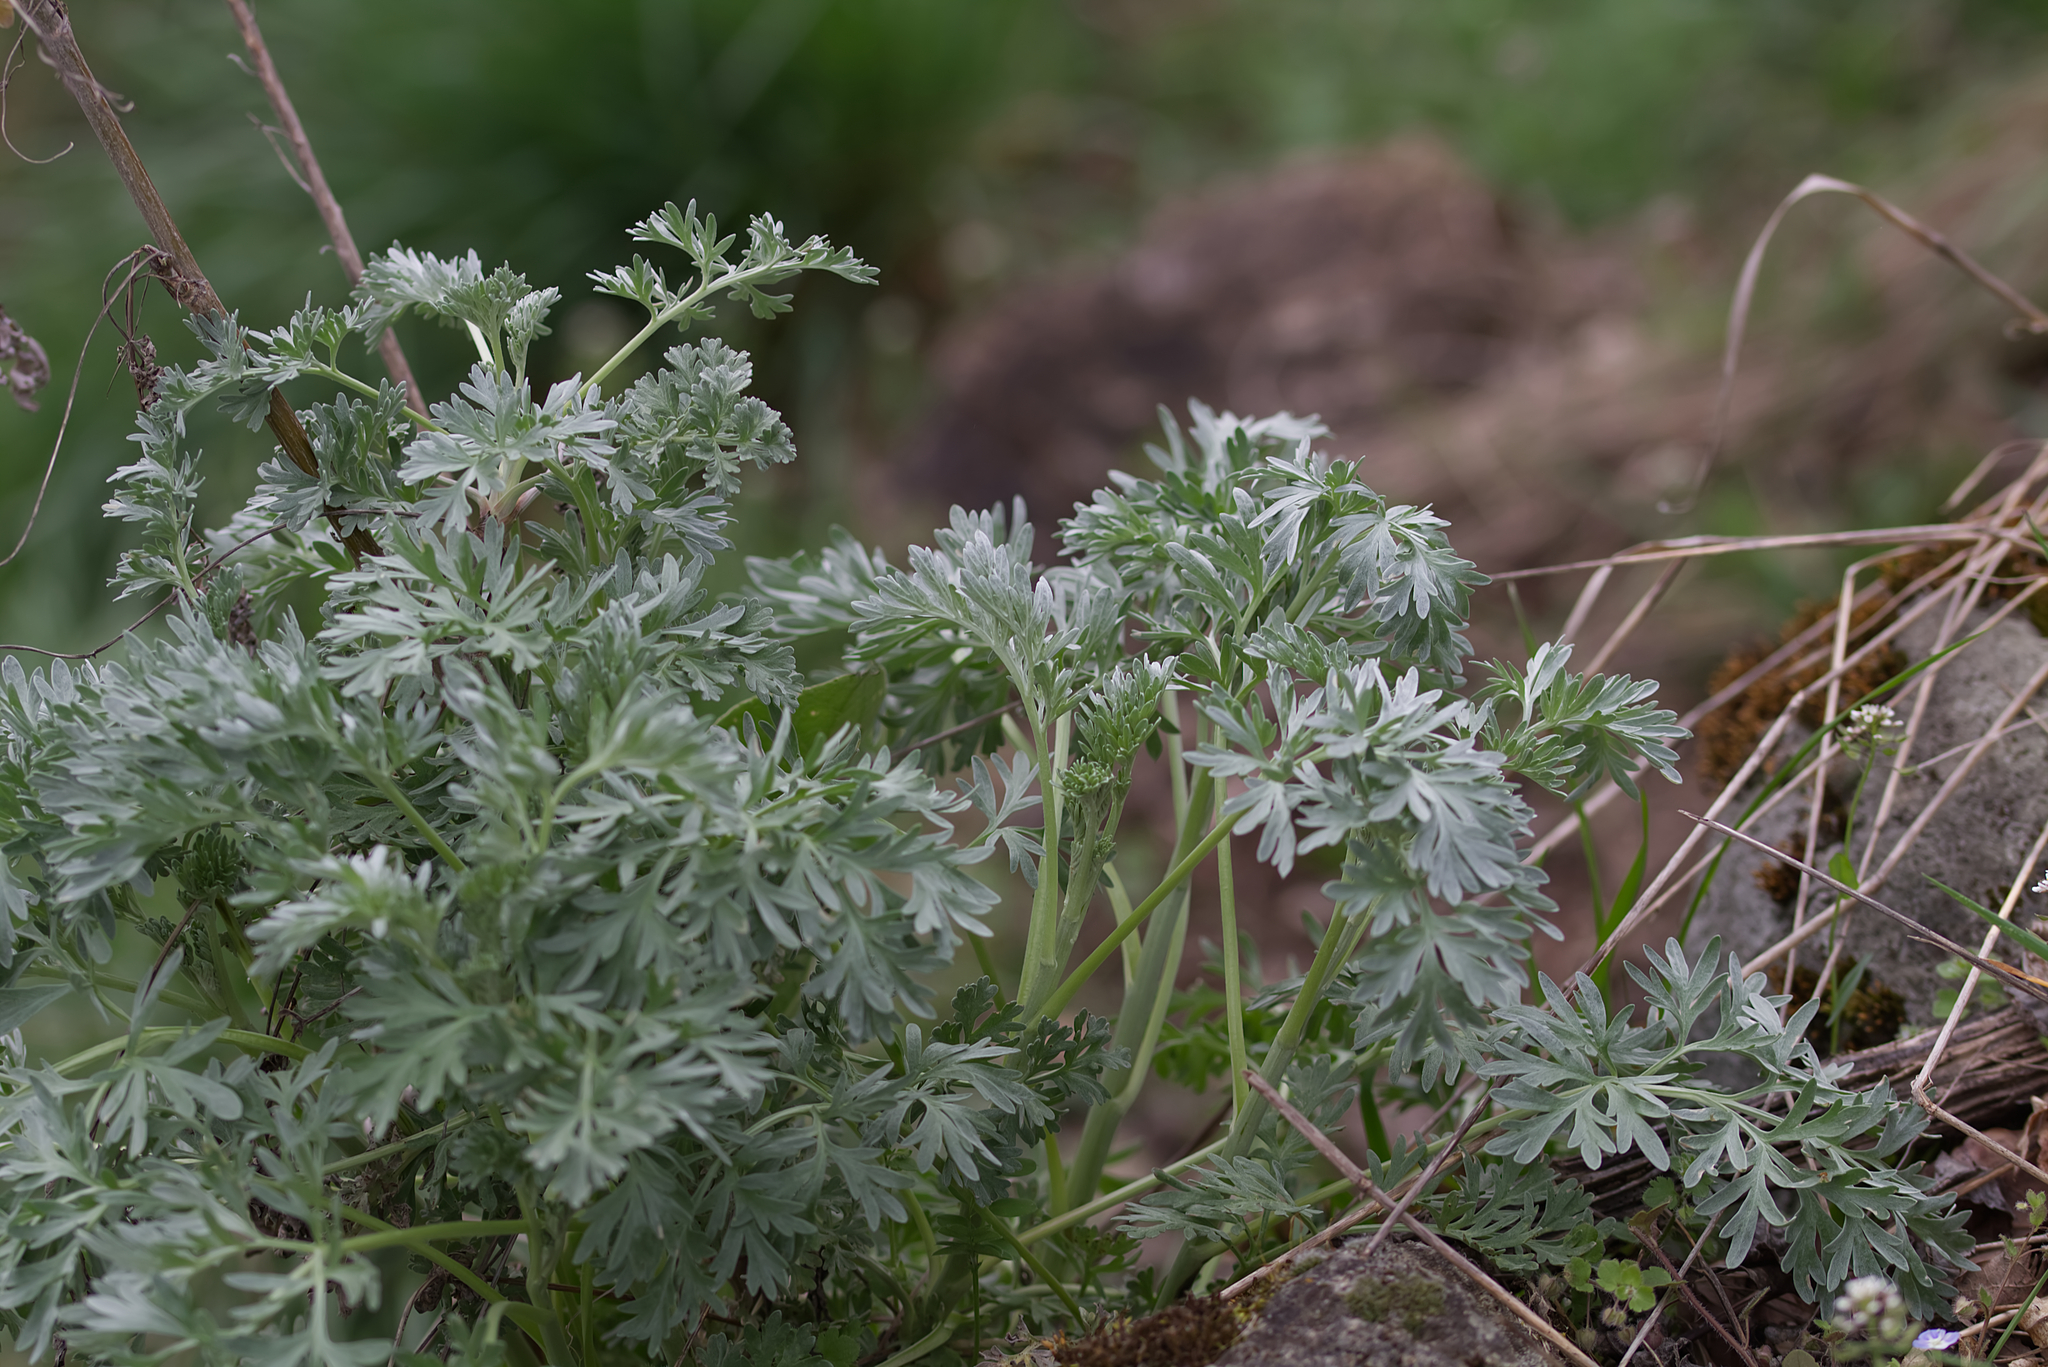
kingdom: Plantae
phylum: Tracheophyta
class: Magnoliopsida
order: Asterales
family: Asteraceae
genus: Artemisia
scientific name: Artemisia absinthium
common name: Wormwood
